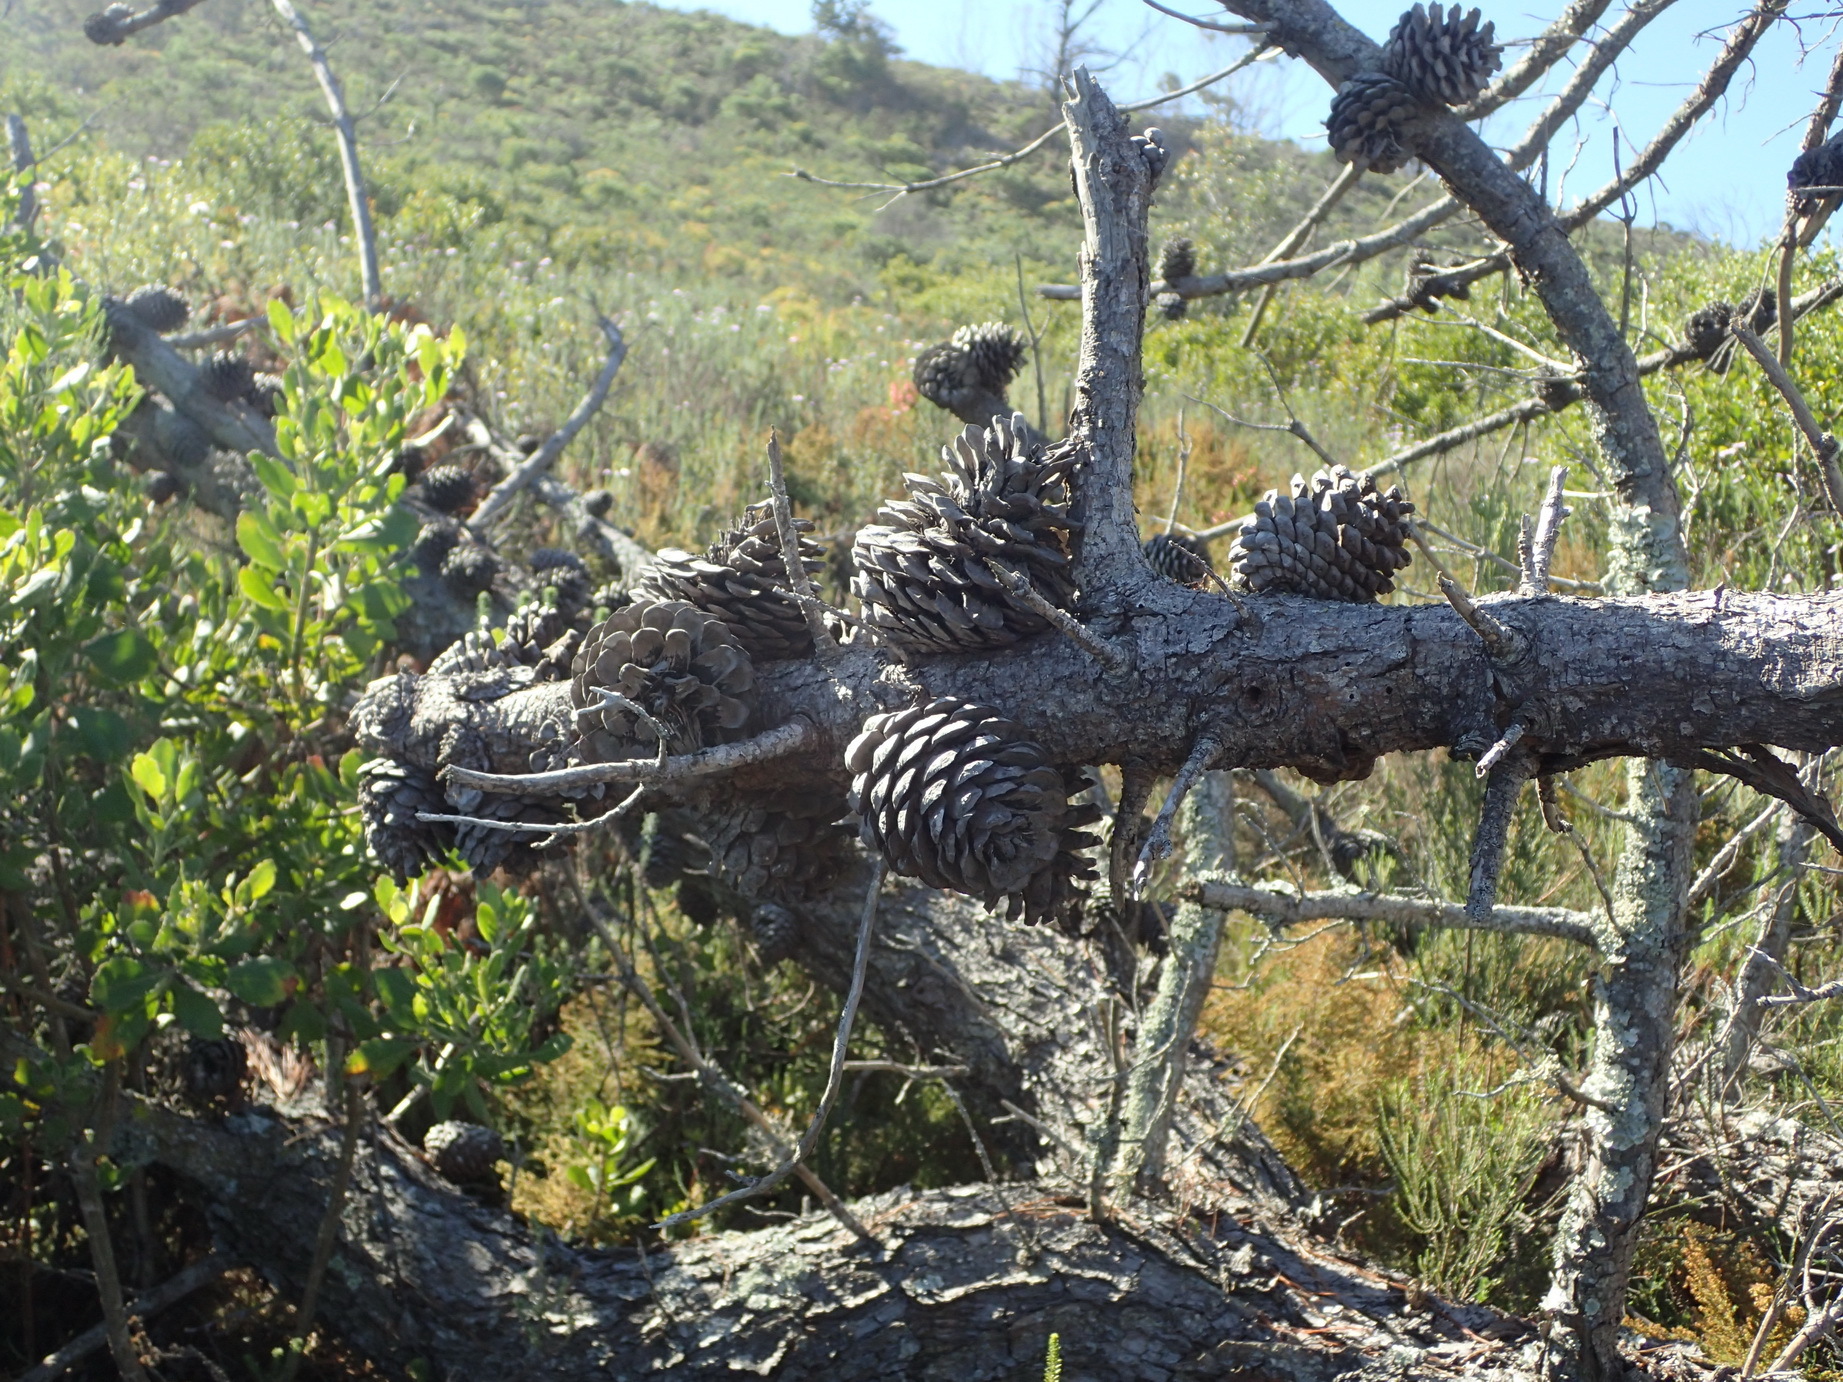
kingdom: Plantae
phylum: Tracheophyta
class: Pinopsida
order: Pinales
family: Pinaceae
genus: Pinus
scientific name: Pinus pinaster
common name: Maritime pine
